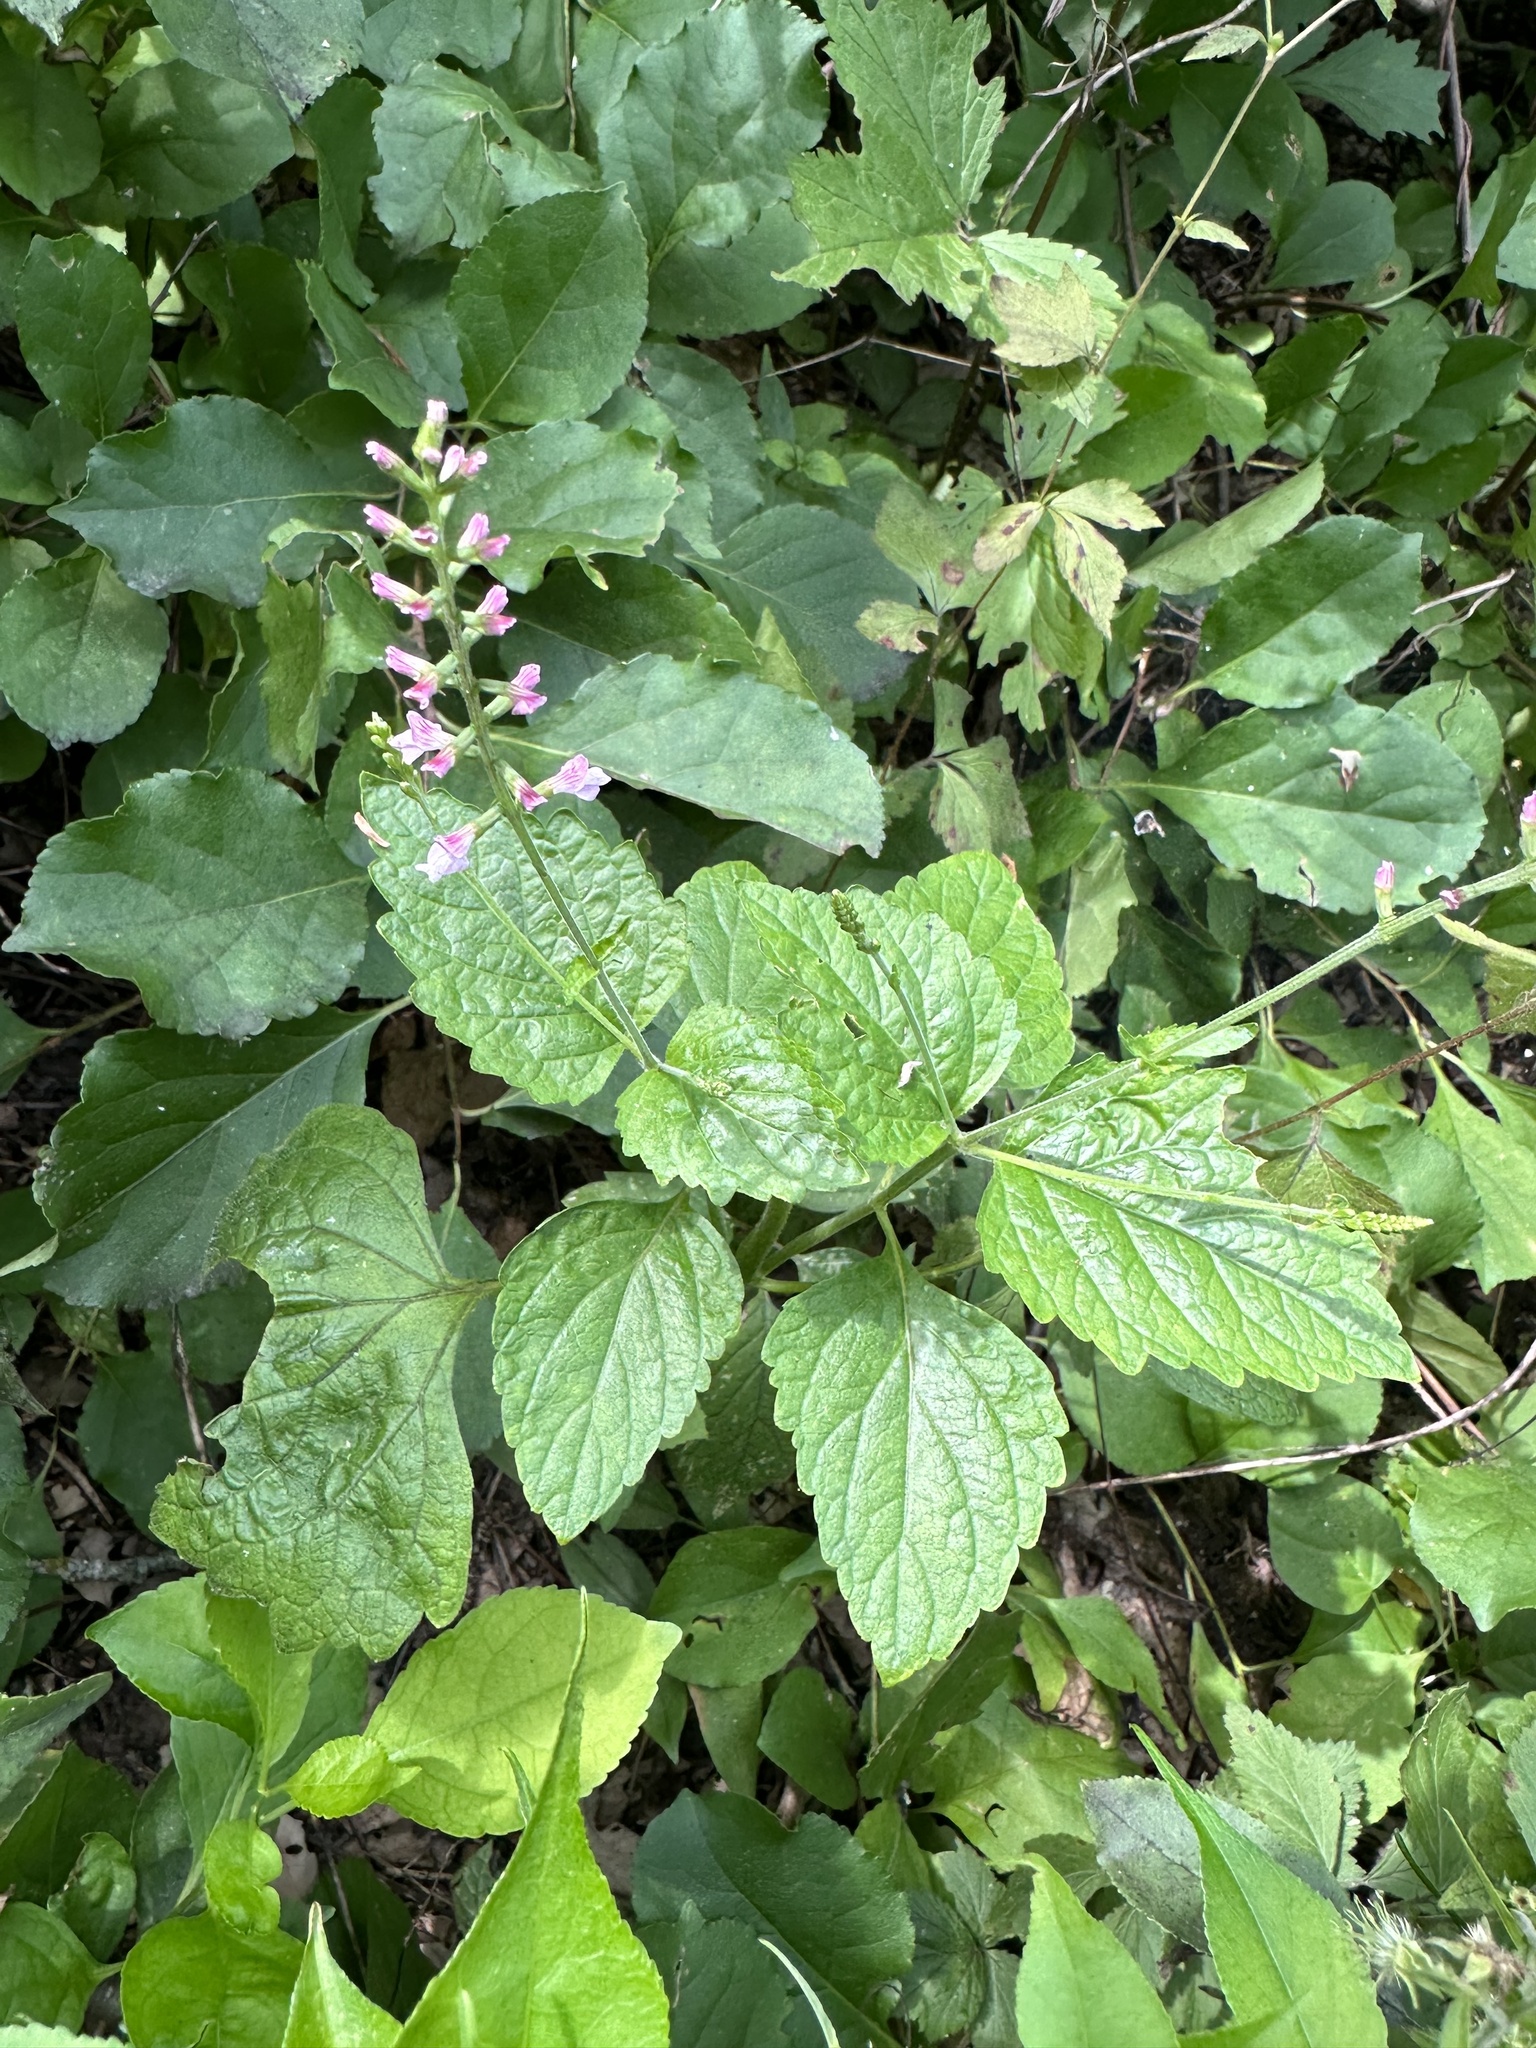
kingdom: Plantae
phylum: Tracheophyta
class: Magnoliopsida
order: Lamiales
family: Phrymaceae
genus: Phryma
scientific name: Phryma leptostachya
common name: American lopseed
